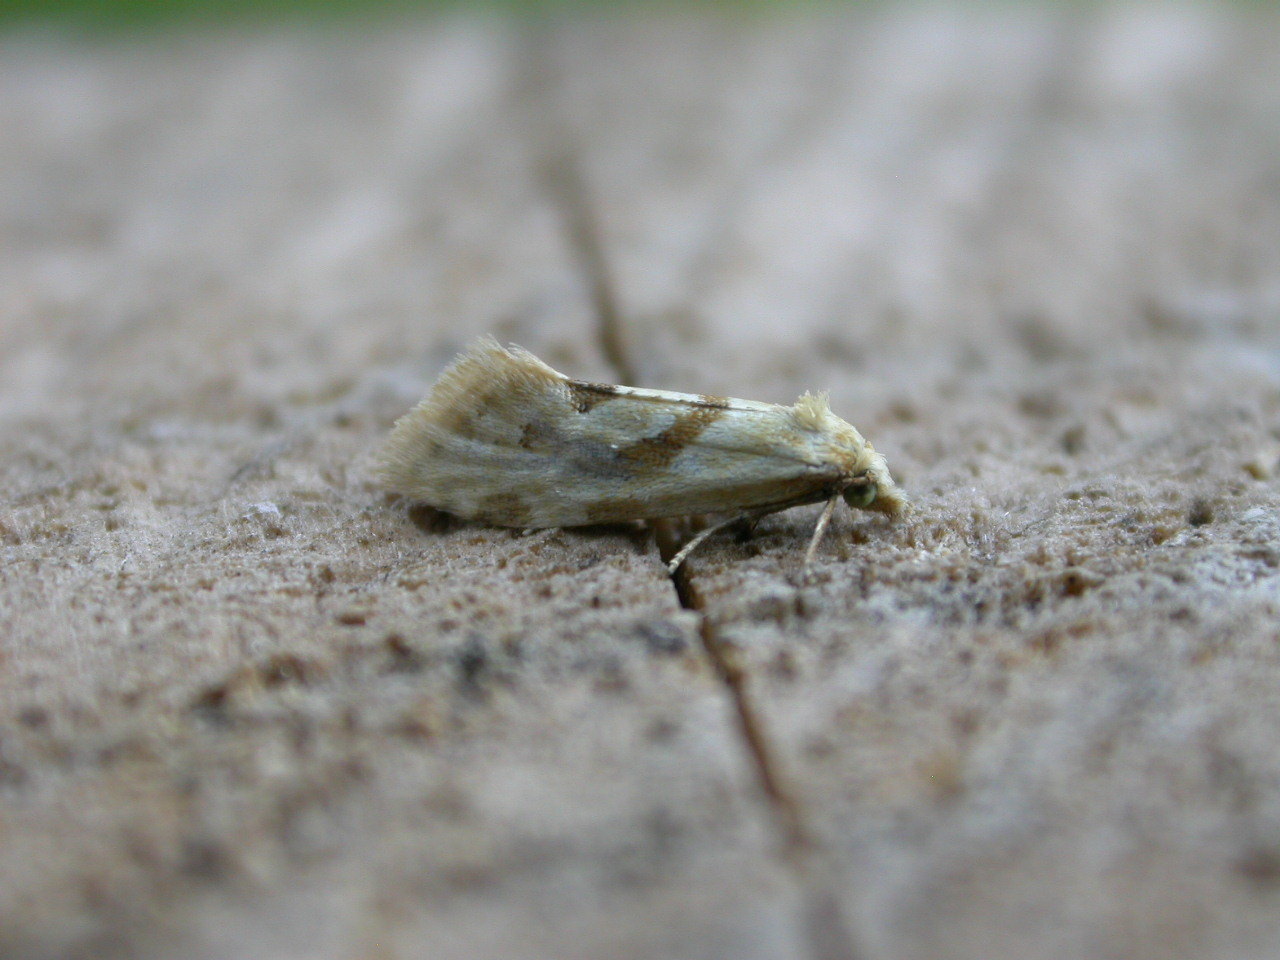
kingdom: Animalia
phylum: Arthropoda
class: Insecta
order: Lepidoptera
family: Tortricidae
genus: Aethes
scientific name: Aethes smeathmanniana
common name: Yarrow conch
